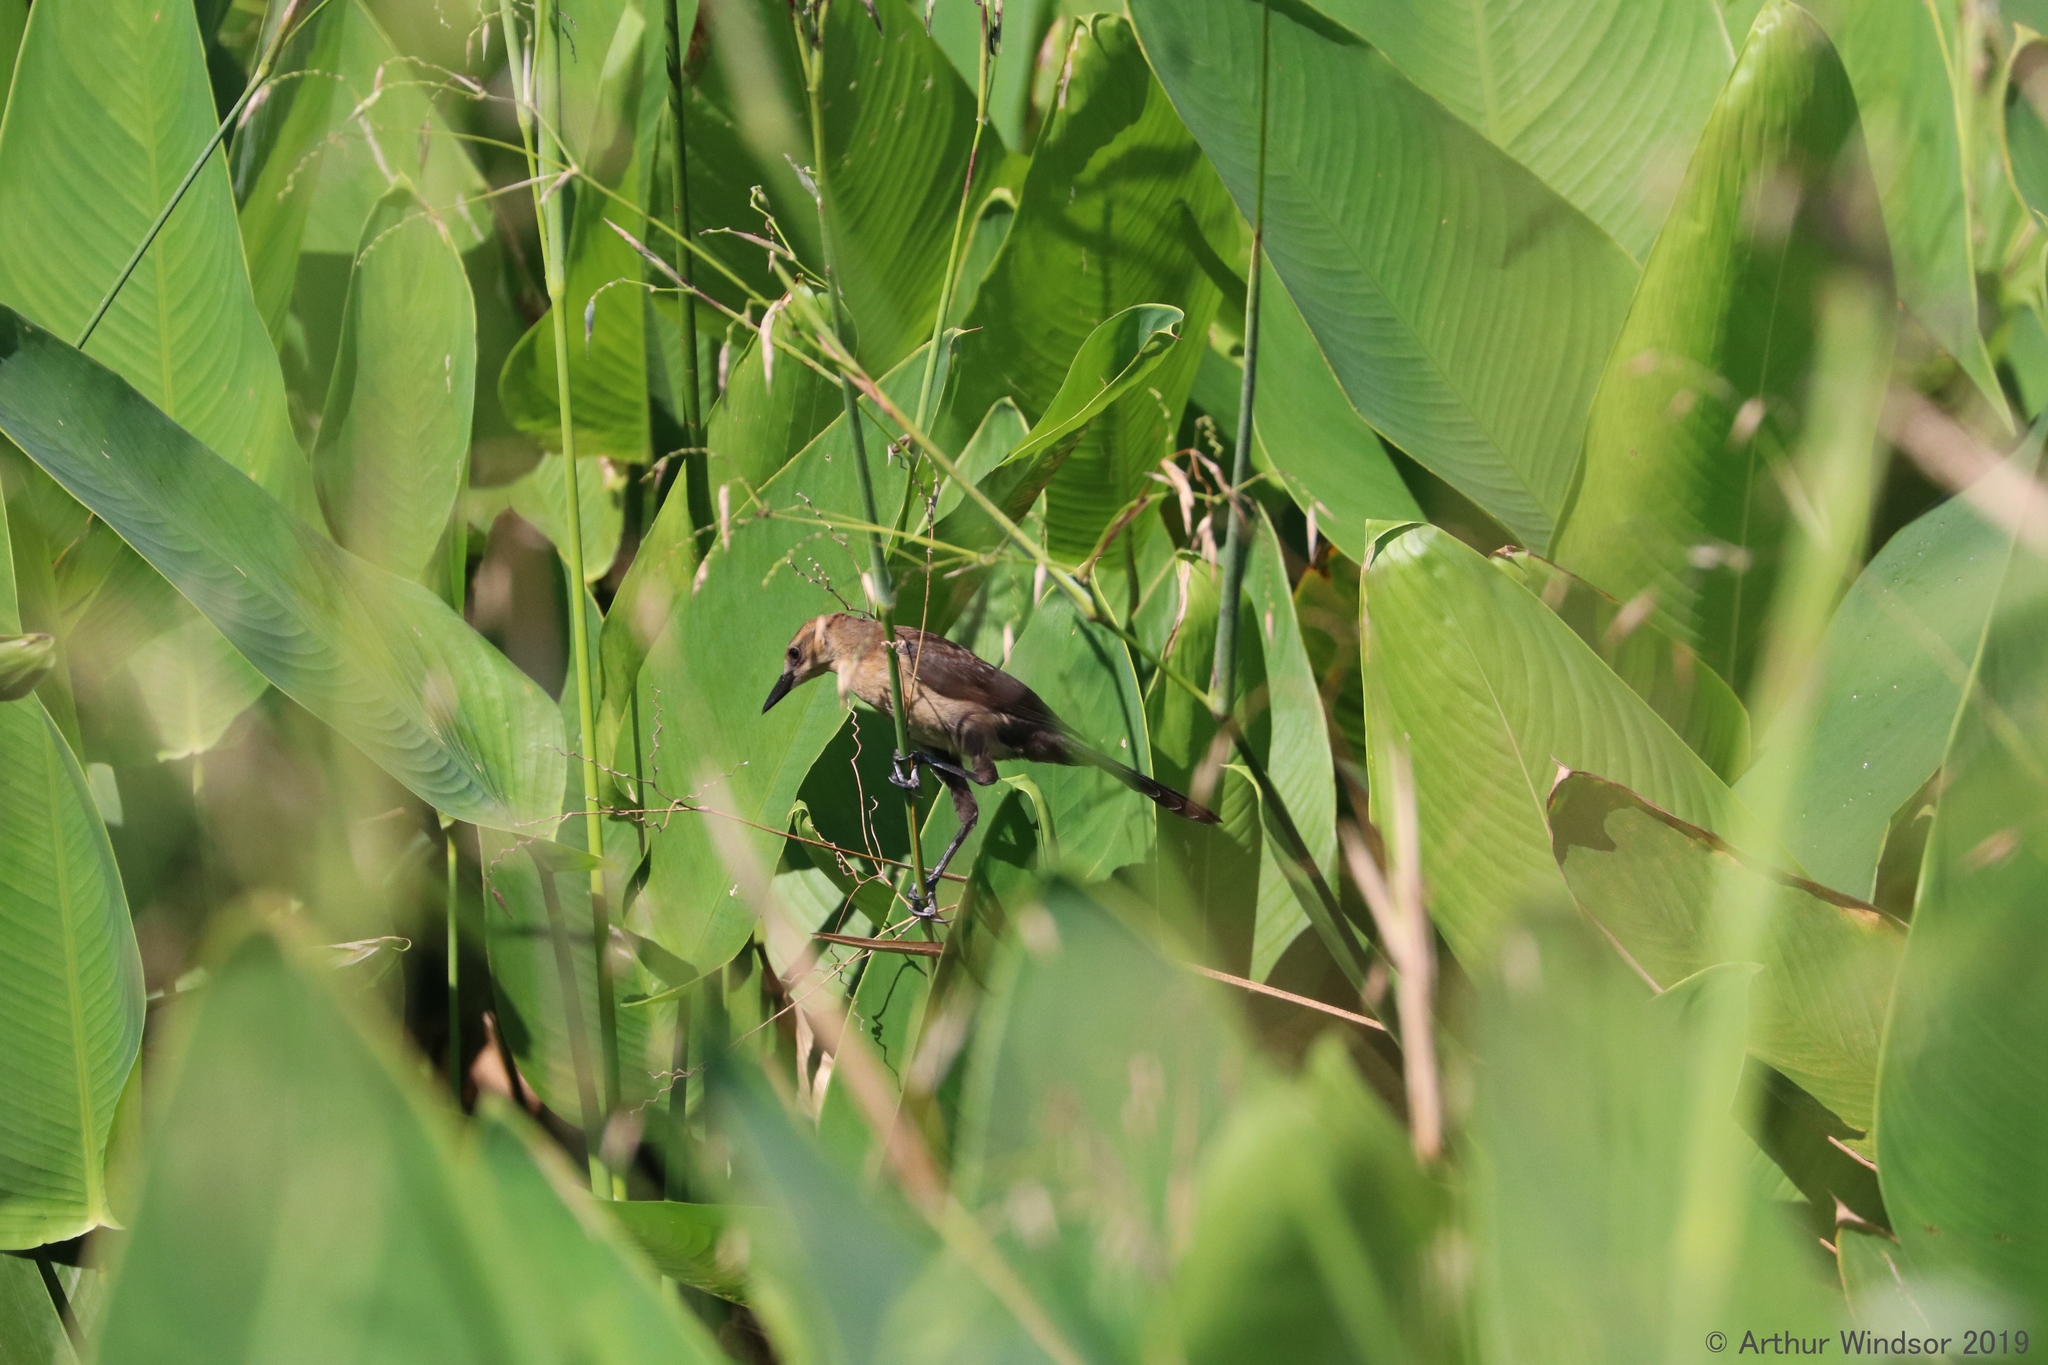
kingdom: Animalia
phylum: Chordata
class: Aves
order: Passeriformes
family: Icteridae
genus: Quiscalus
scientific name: Quiscalus major
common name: Boat-tailed grackle
